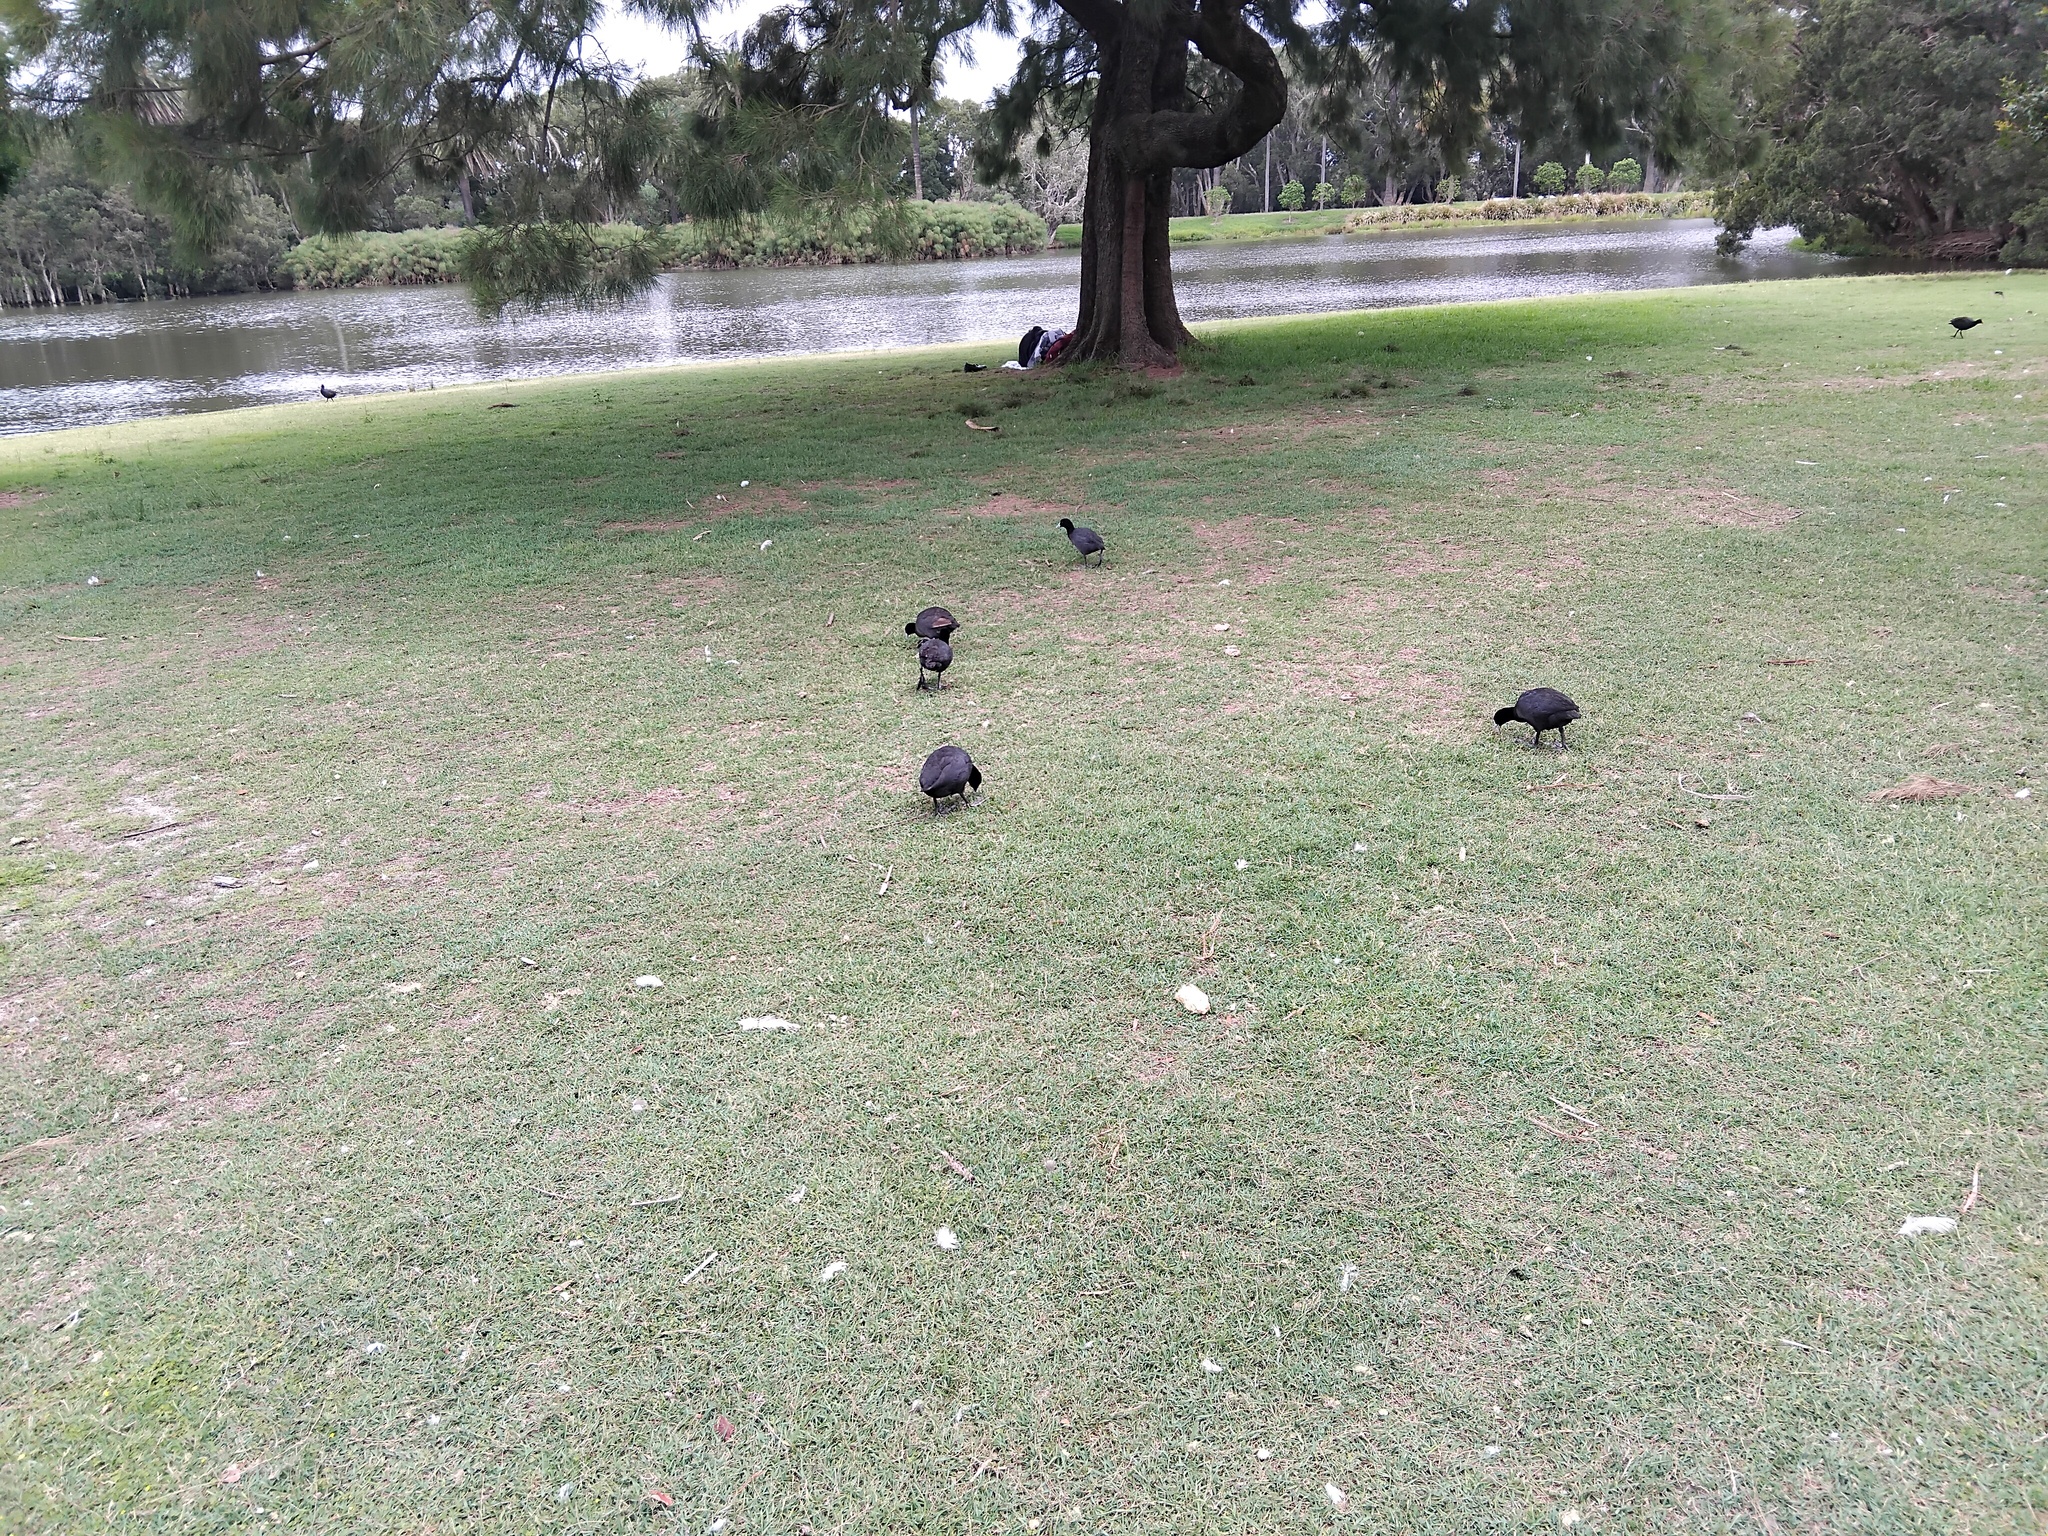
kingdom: Animalia
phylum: Chordata
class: Aves
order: Gruiformes
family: Rallidae
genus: Fulica
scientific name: Fulica atra
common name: Eurasian coot
